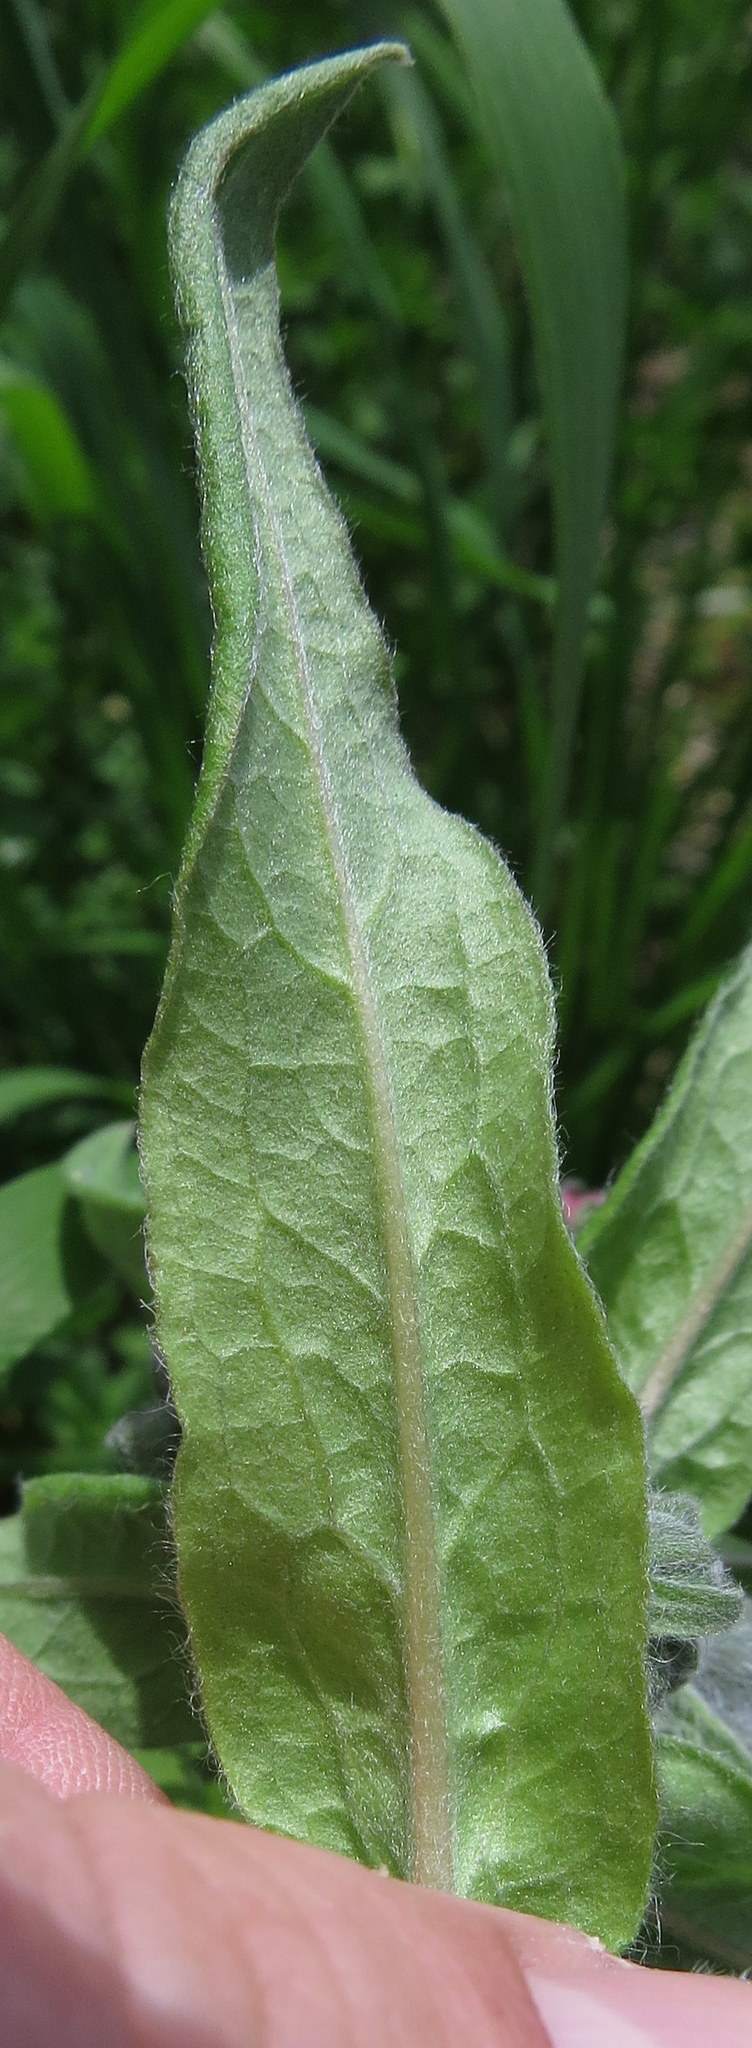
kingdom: Plantae
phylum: Tracheophyta
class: Magnoliopsida
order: Boraginales
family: Boraginaceae
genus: Cynoglossum
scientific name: Cynoglossum officinale
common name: Hound's-tongue
